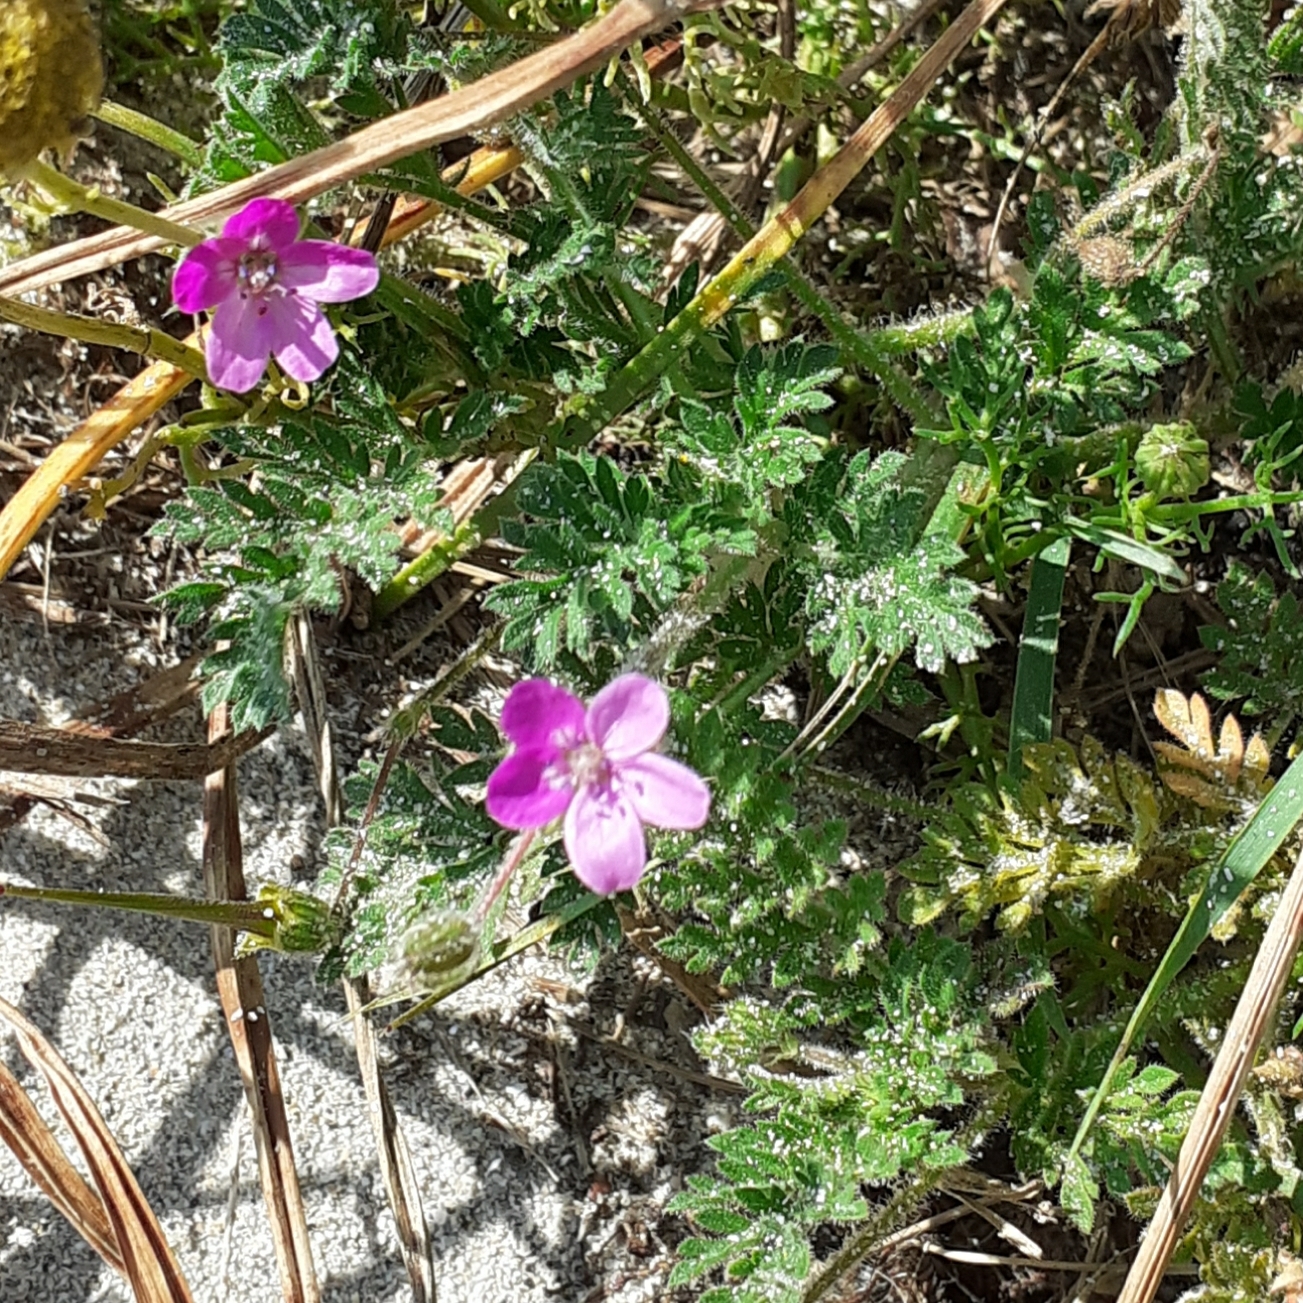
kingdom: Plantae
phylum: Tracheophyta
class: Magnoliopsida
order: Geraniales
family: Geraniaceae
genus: Erodium
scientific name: Erodium cicutarium
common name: Common stork's-bill
